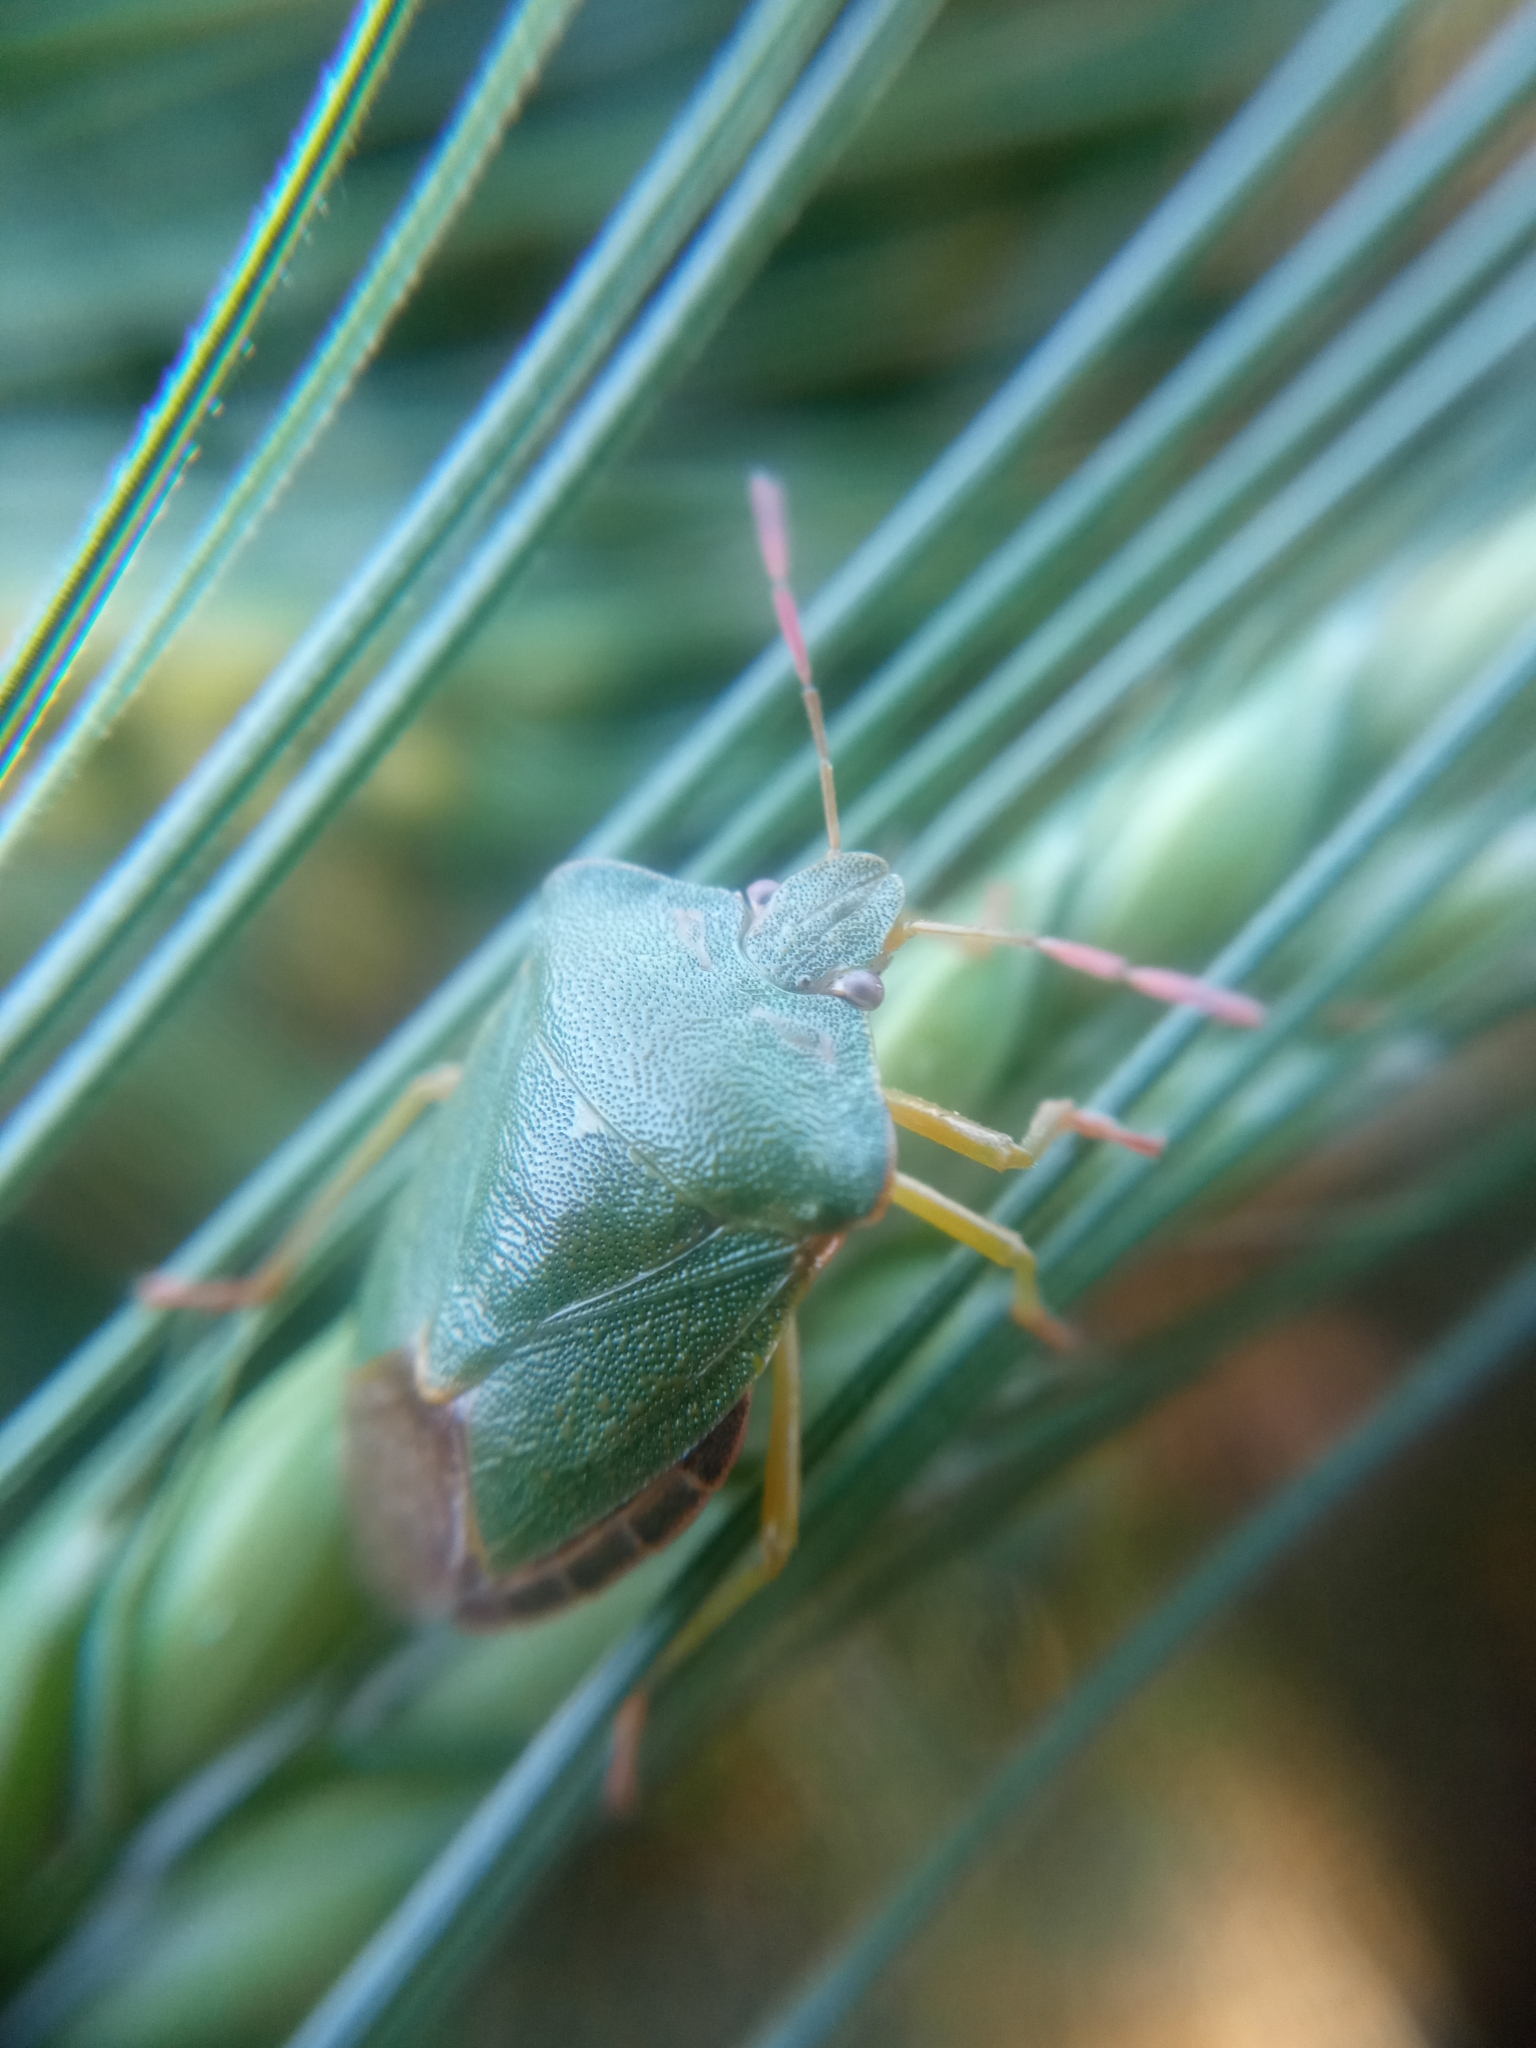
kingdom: Animalia
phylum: Arthropoda
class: Insecta
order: Hemiptera
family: Pentatomidae
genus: Palomena
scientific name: Palomena prasina
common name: Green shieldbug
